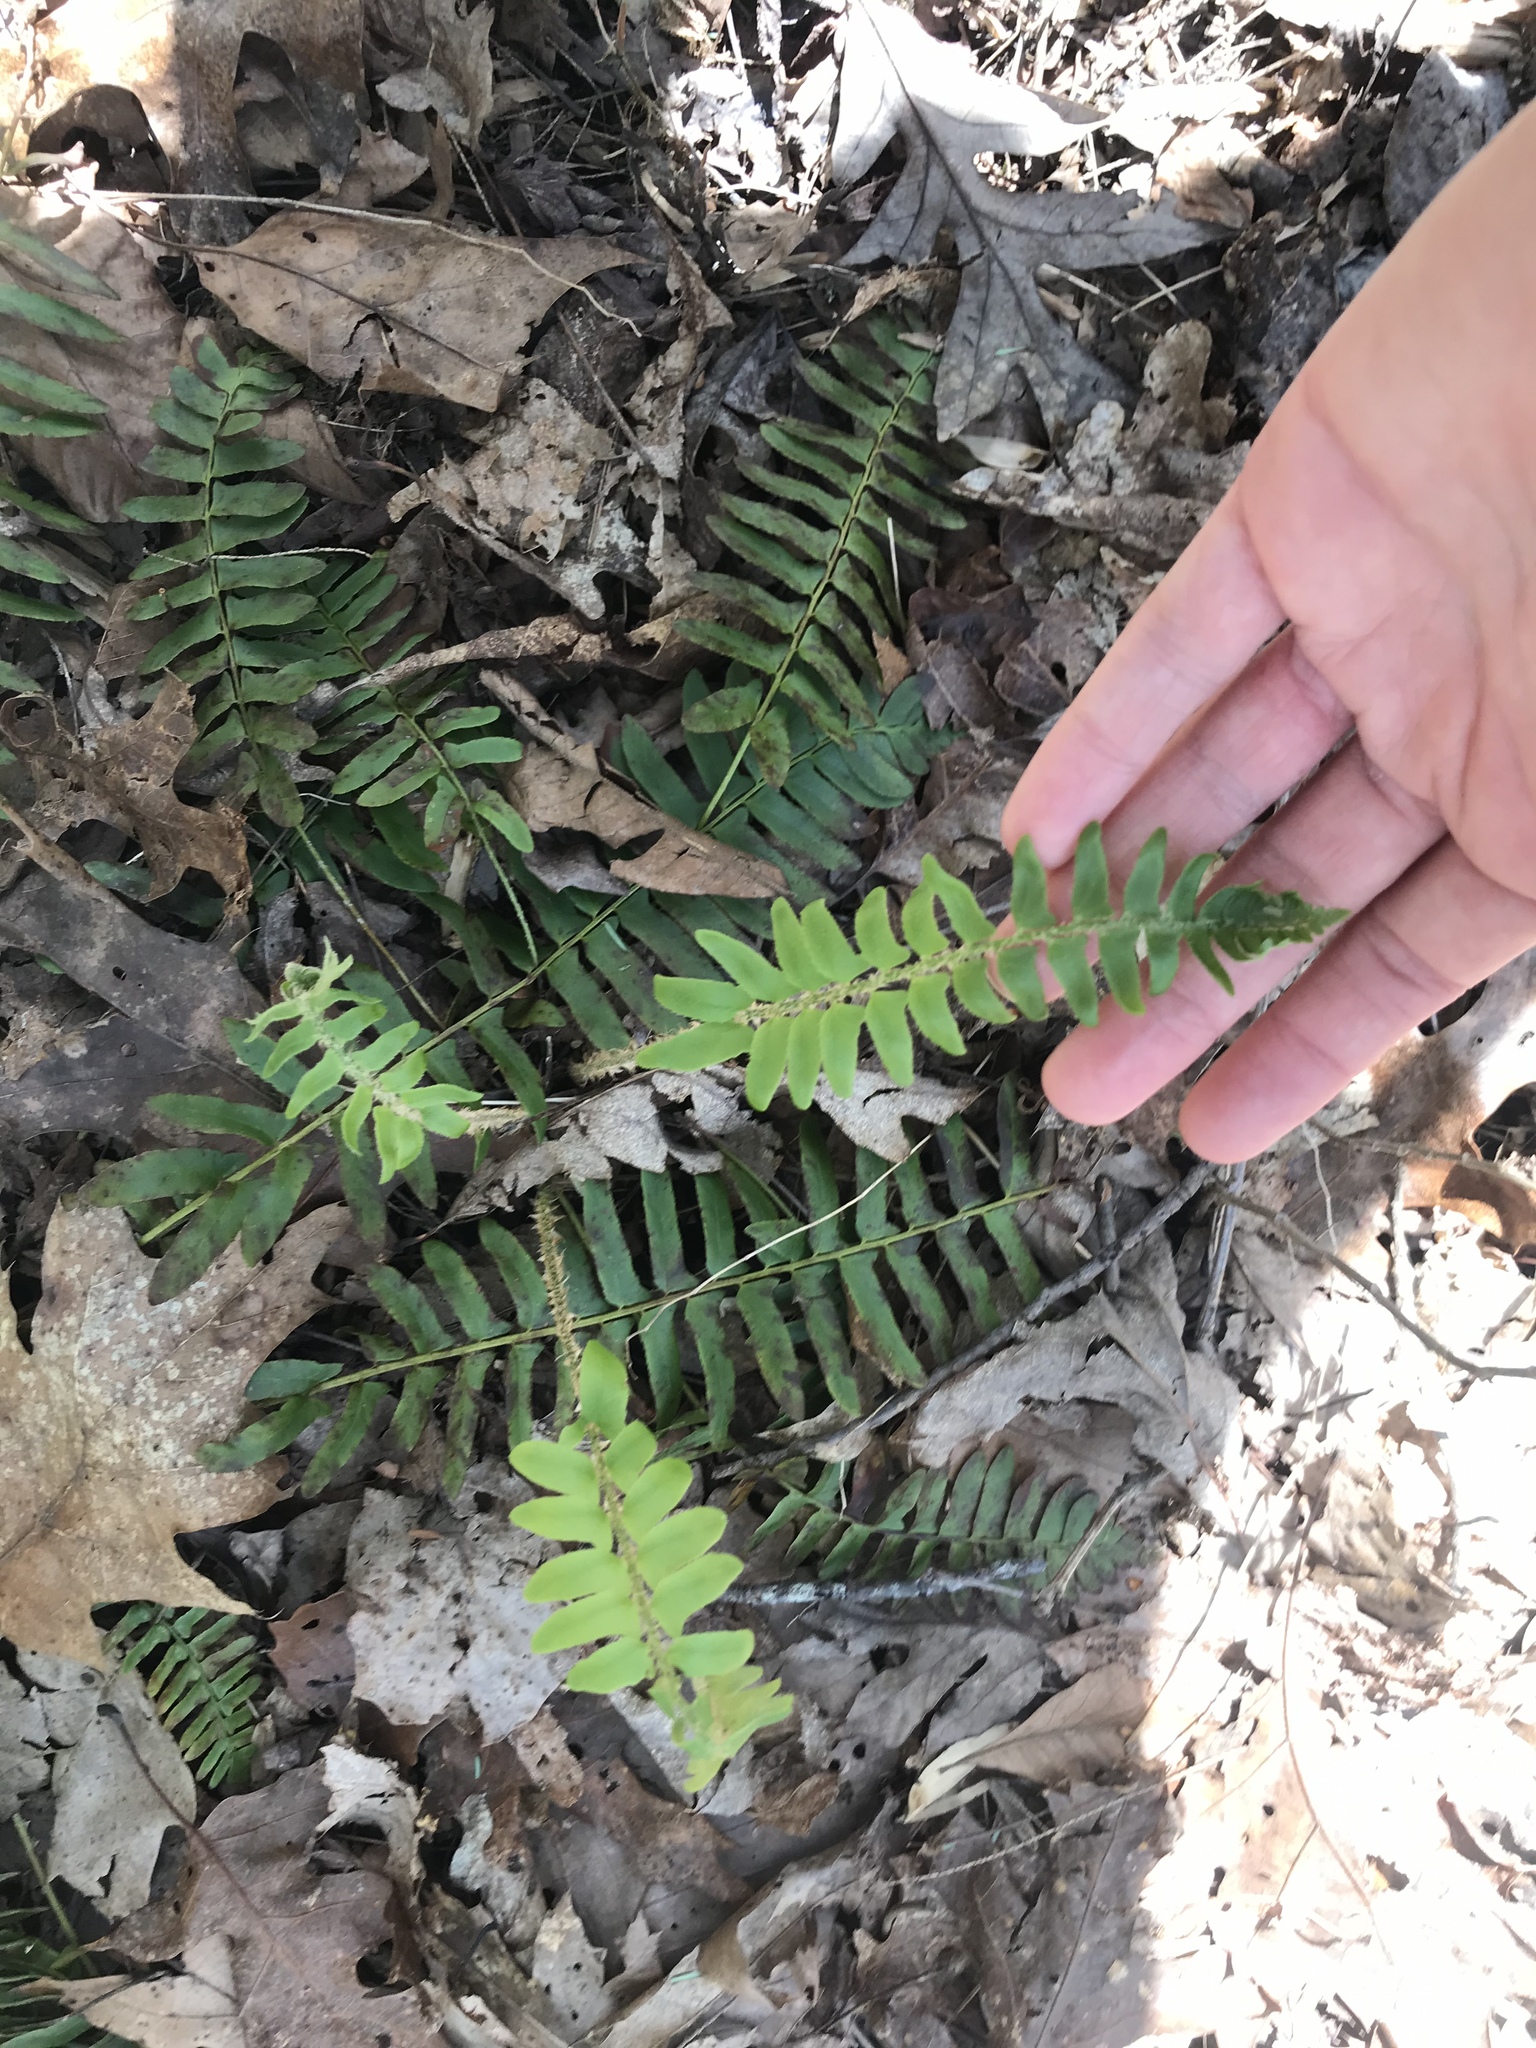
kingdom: Plantae
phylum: Tracheophyta
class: Polypodiopsida
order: Polypodiales
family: Dryopteridaceae
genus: Polystichum
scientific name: Polystichum acrostichoides
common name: Christmas fern
